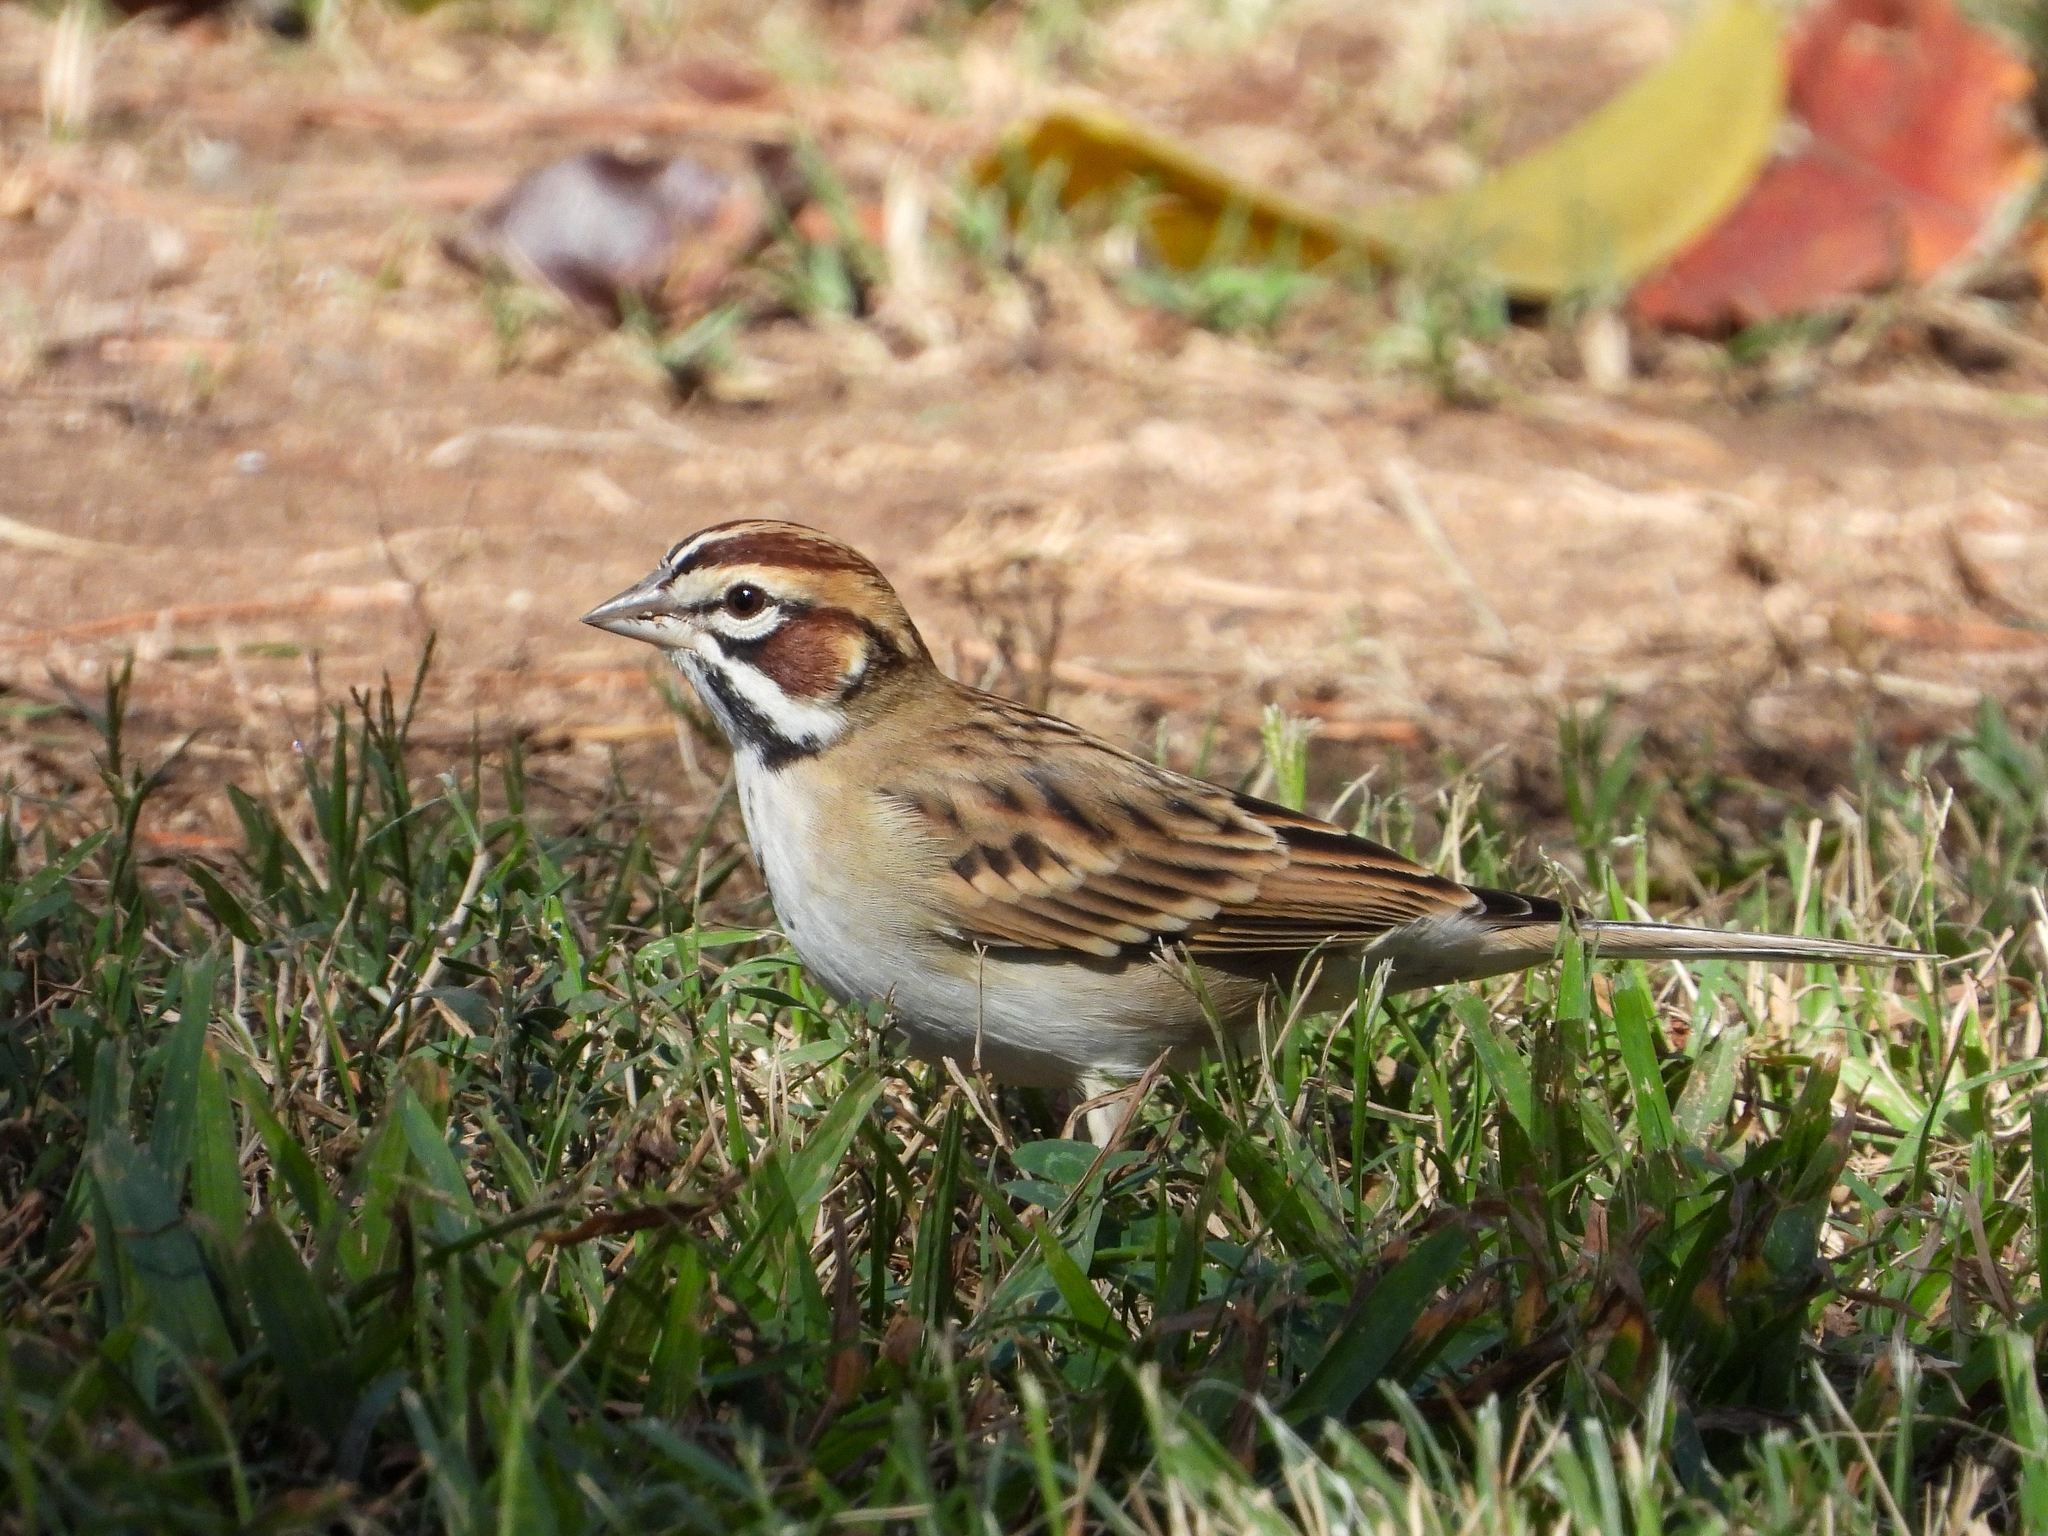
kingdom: Animalia
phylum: Chordata
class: Aves
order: Passeriformes
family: Passerellidae
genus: Chondestes
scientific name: Chondestes grammacus
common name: Lark sparrow
